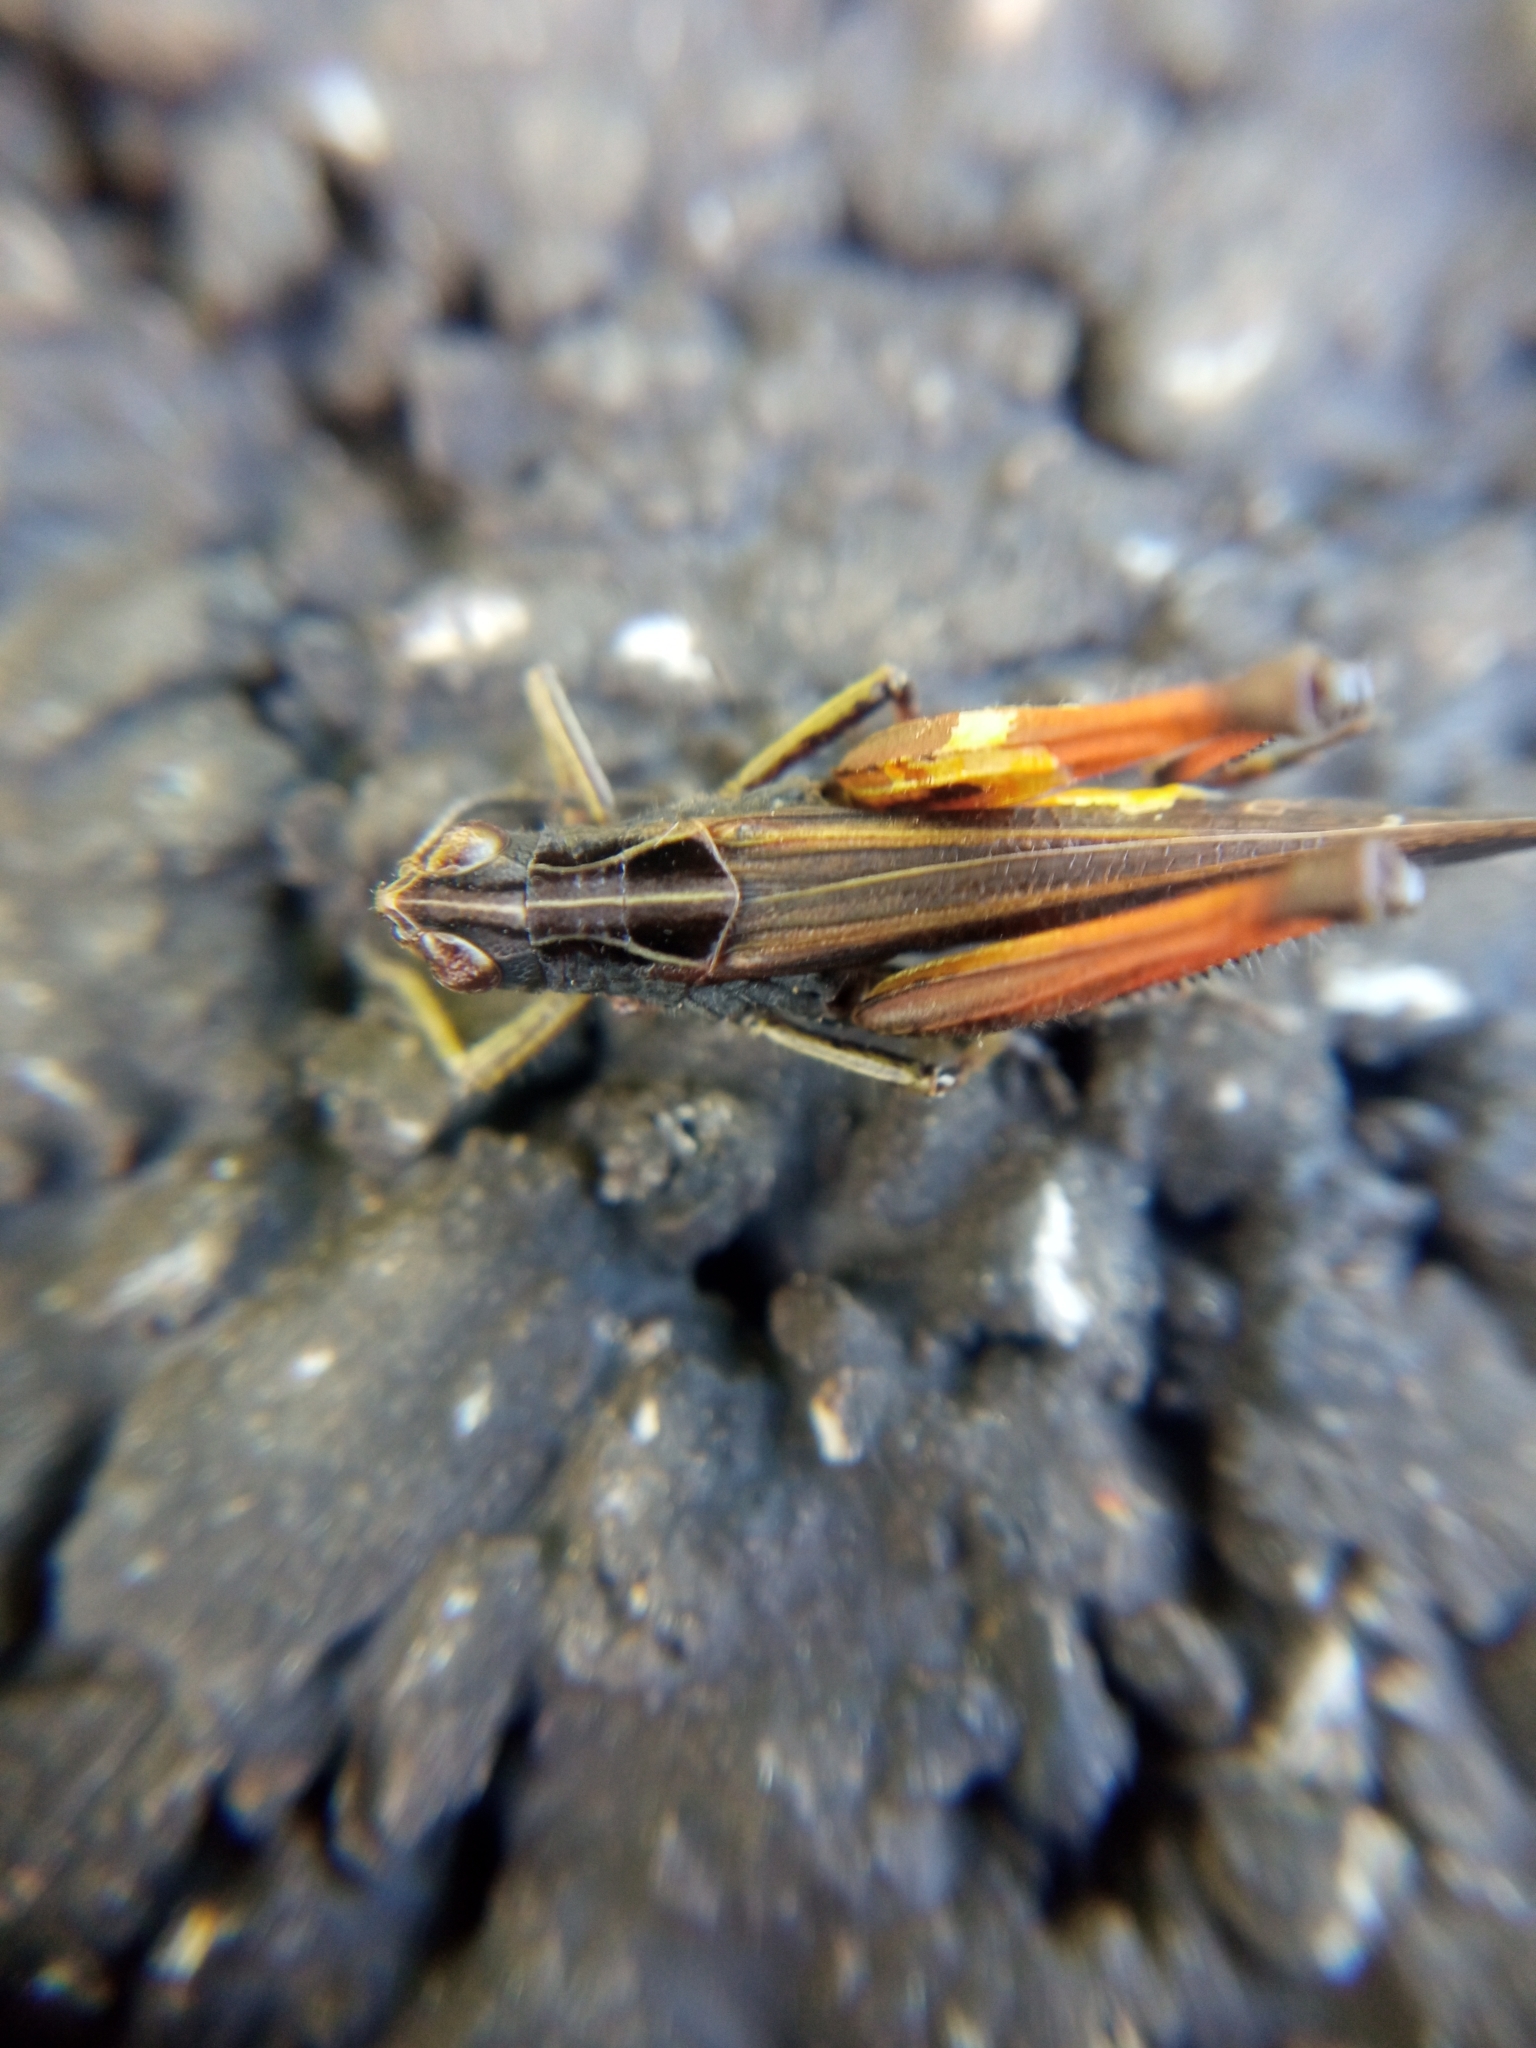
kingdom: Animalia
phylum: Arthropoda
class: Insecta
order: Orthoptera
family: Acrididae
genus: Omocestus
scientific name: Omocestus rufipes
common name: Woodland grasshopper
